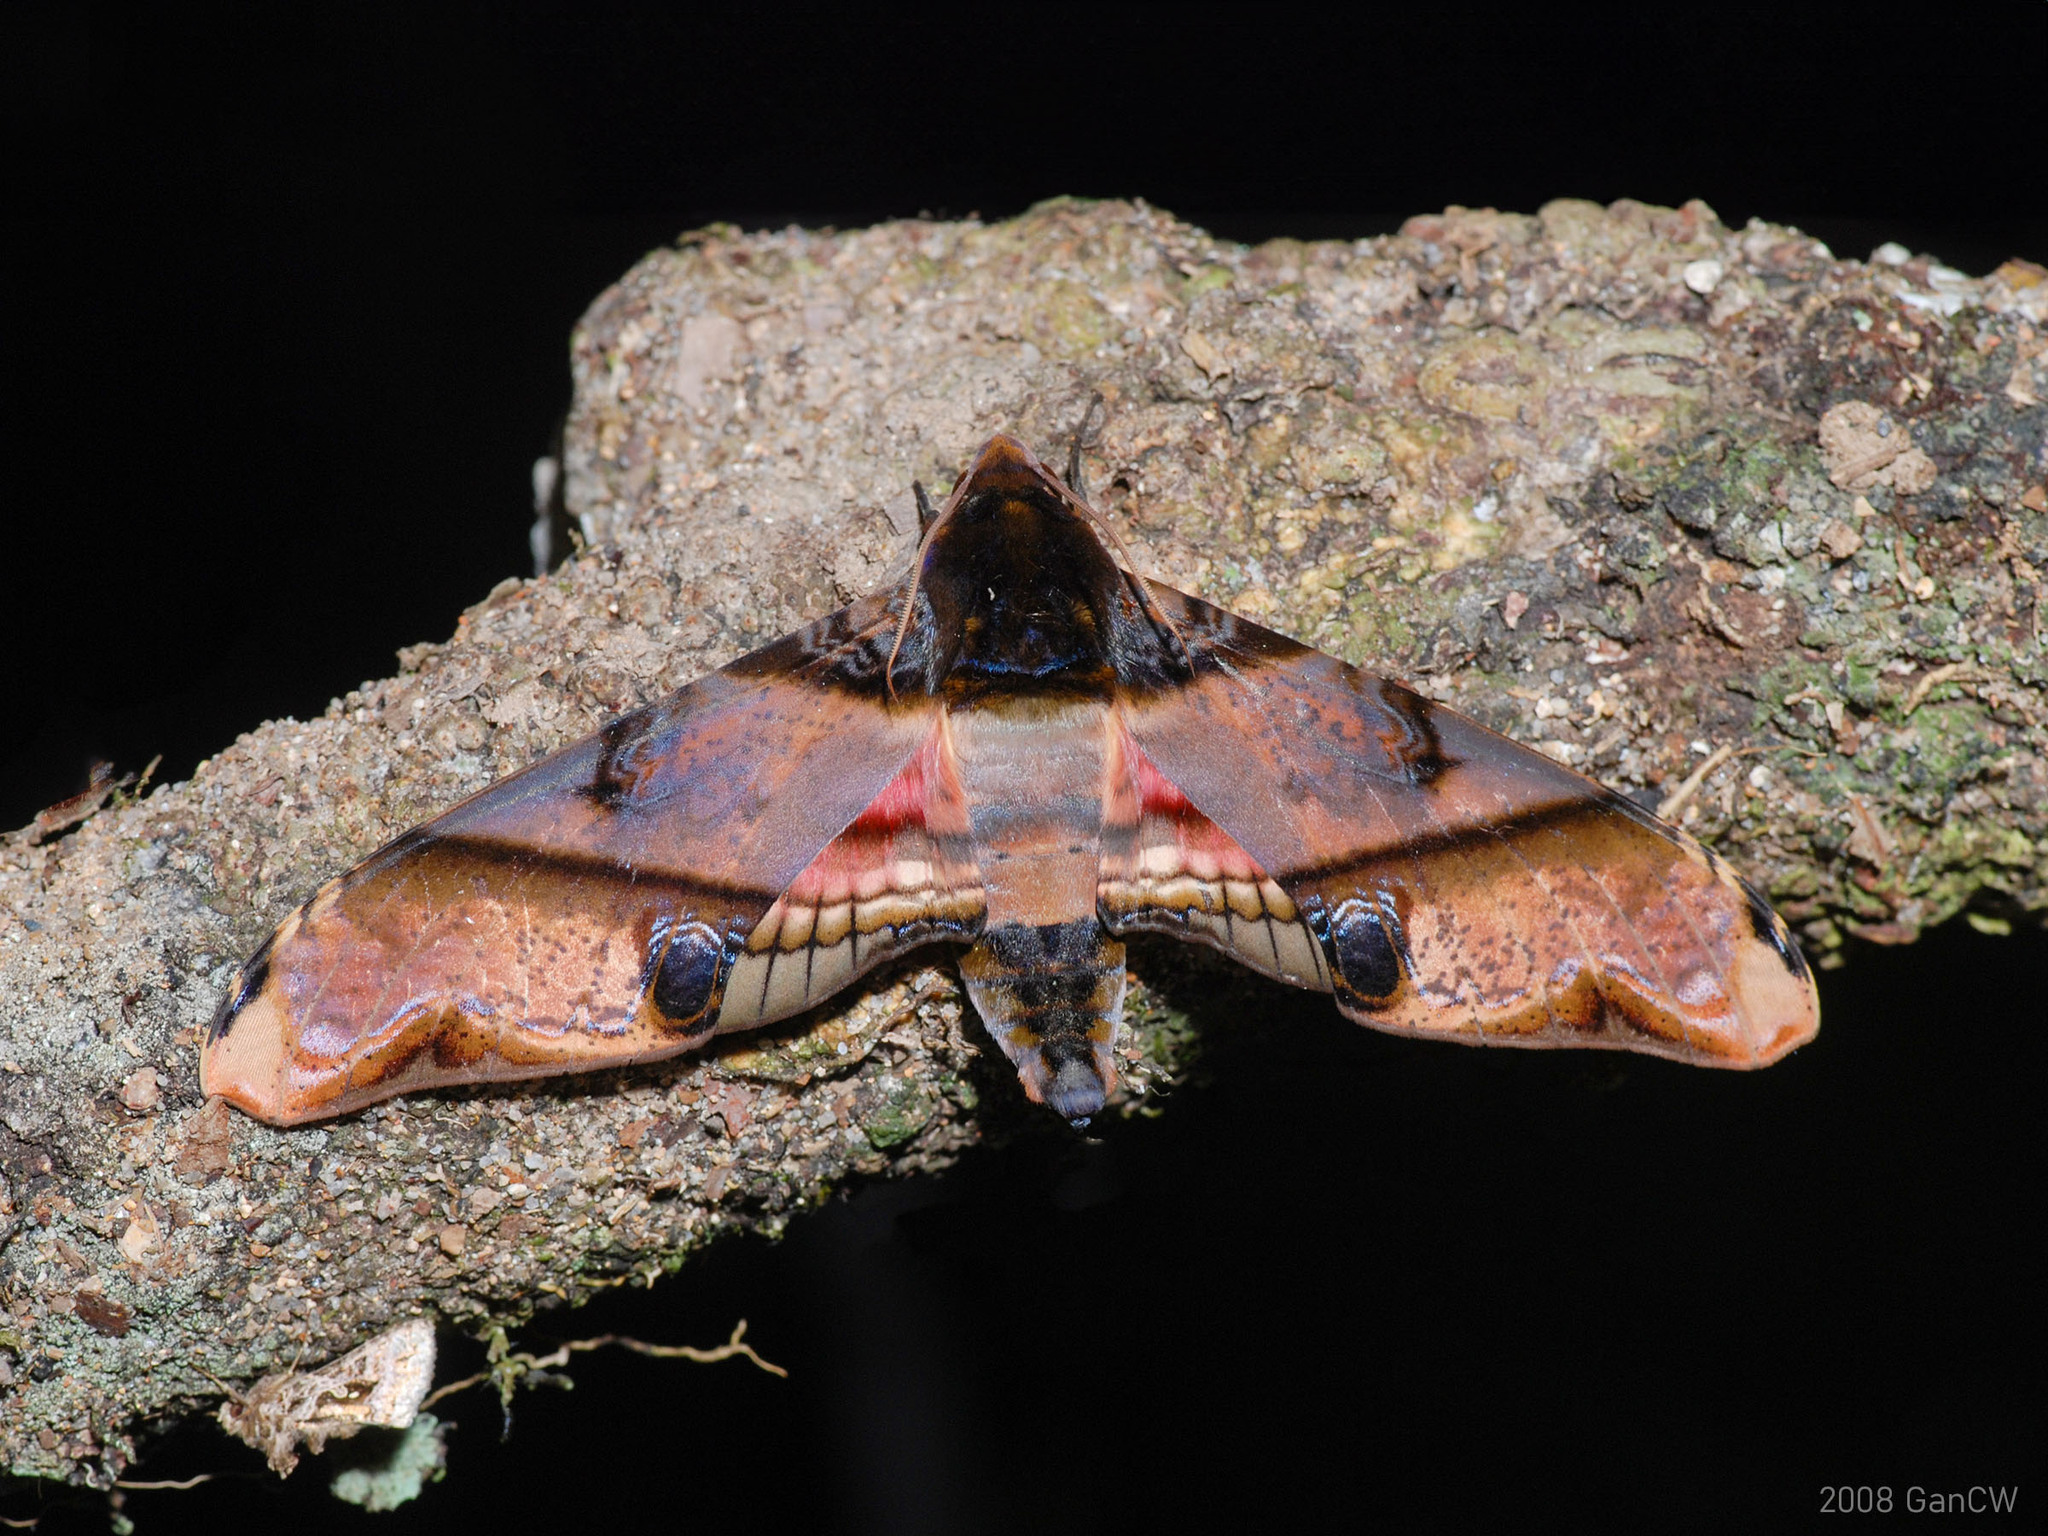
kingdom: Animalia
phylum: Arthropoda
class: Insecta
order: Lepidoptera
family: Sphingidae
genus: Amplypterus
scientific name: Amplypterus panopus
